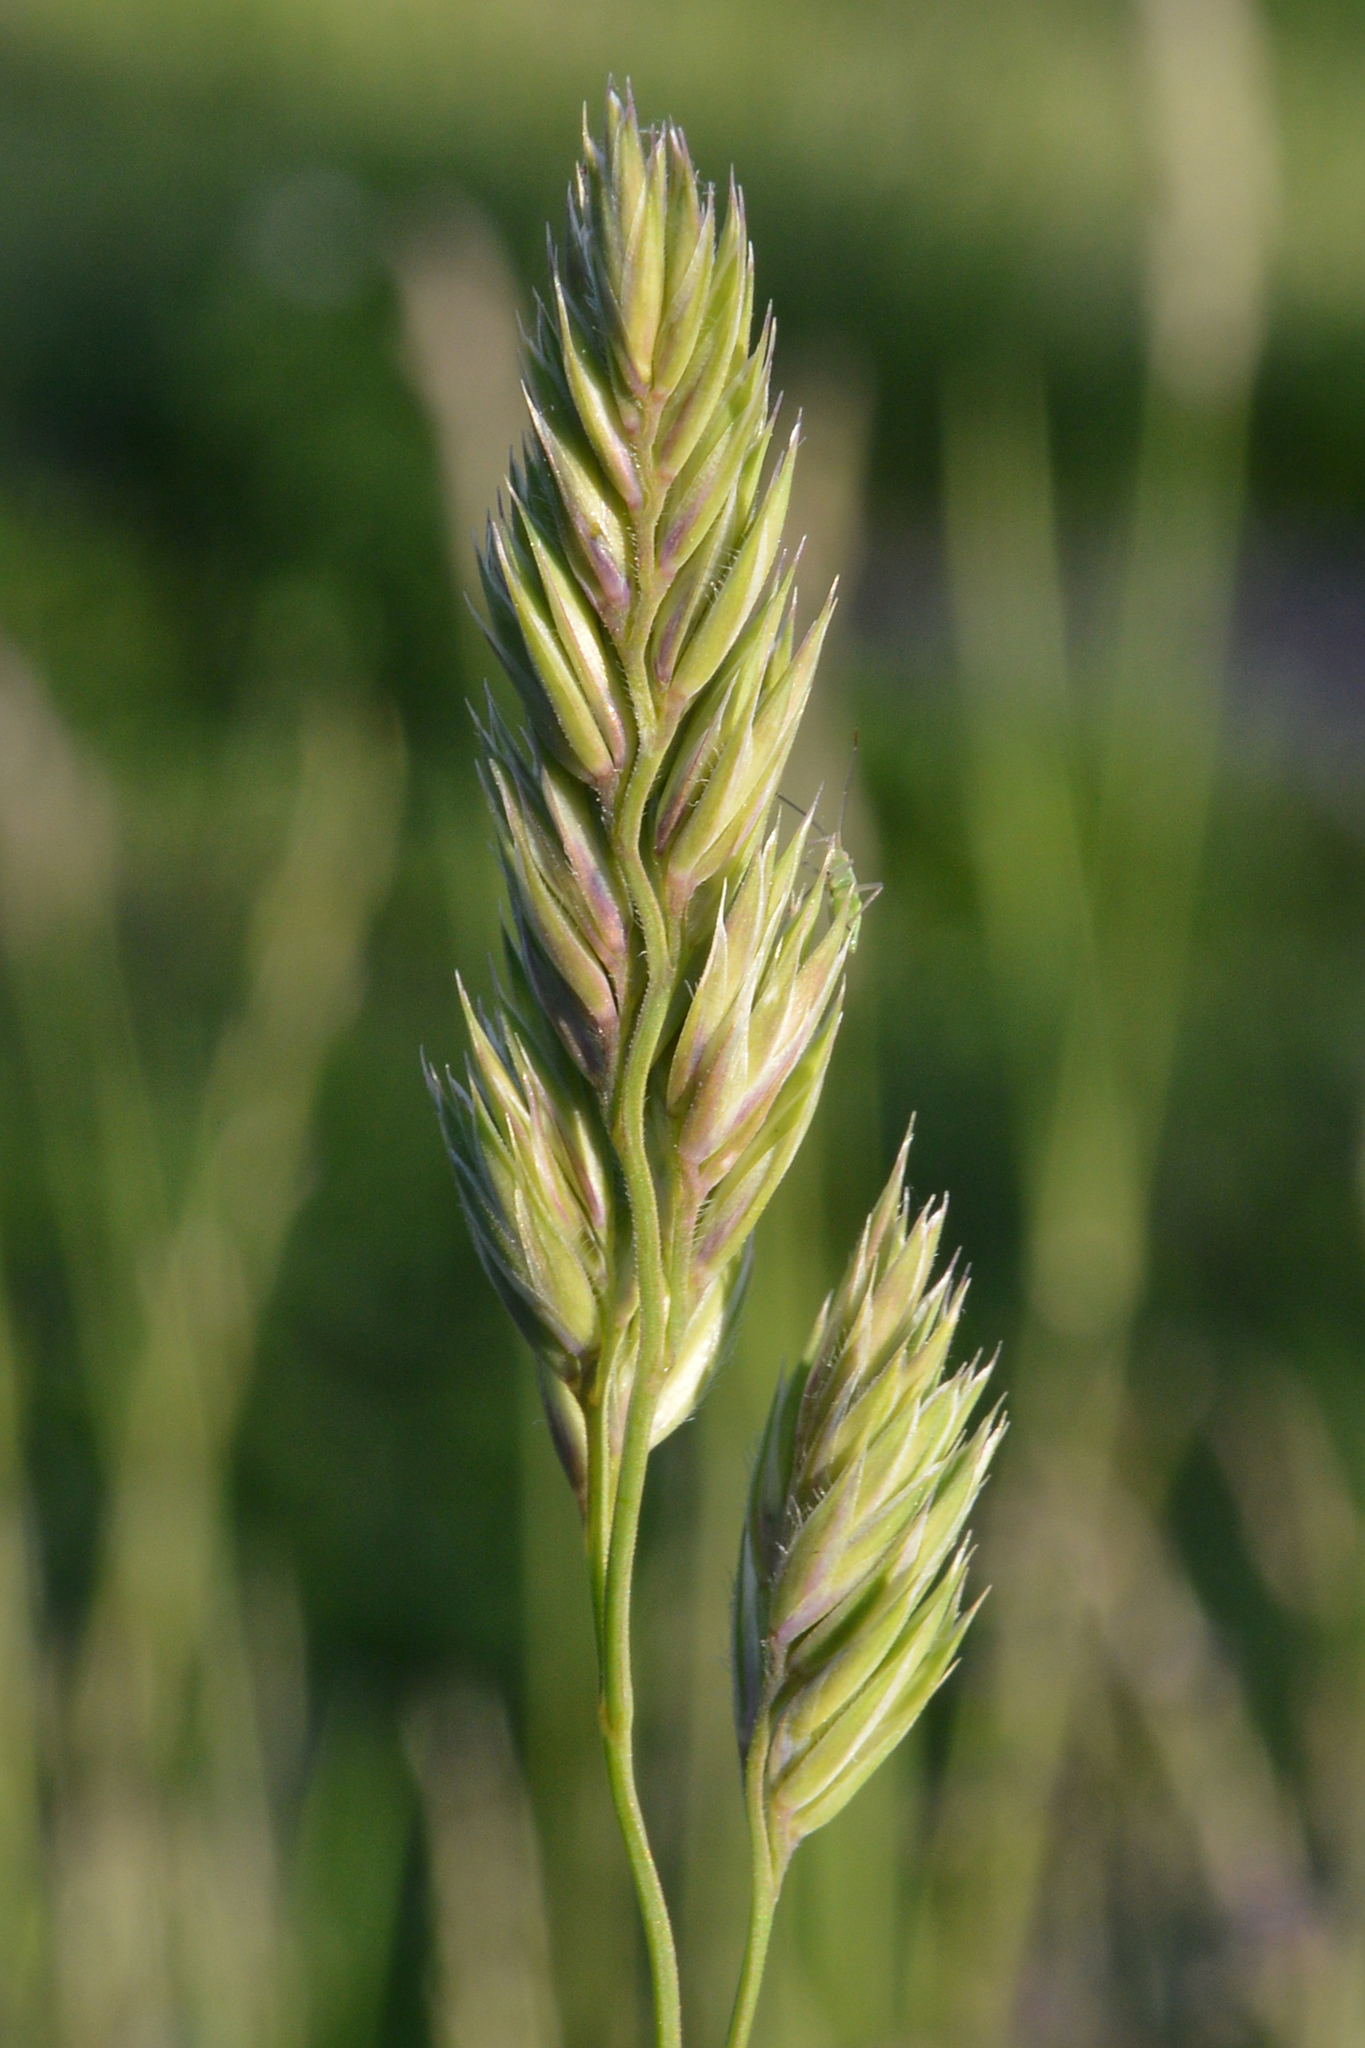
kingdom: Plantae
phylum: Tracheophyta
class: Liliopsida
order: Poales
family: Poaceae
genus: Dactylis
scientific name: Dactylis glomerata
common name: Orchardgrass
